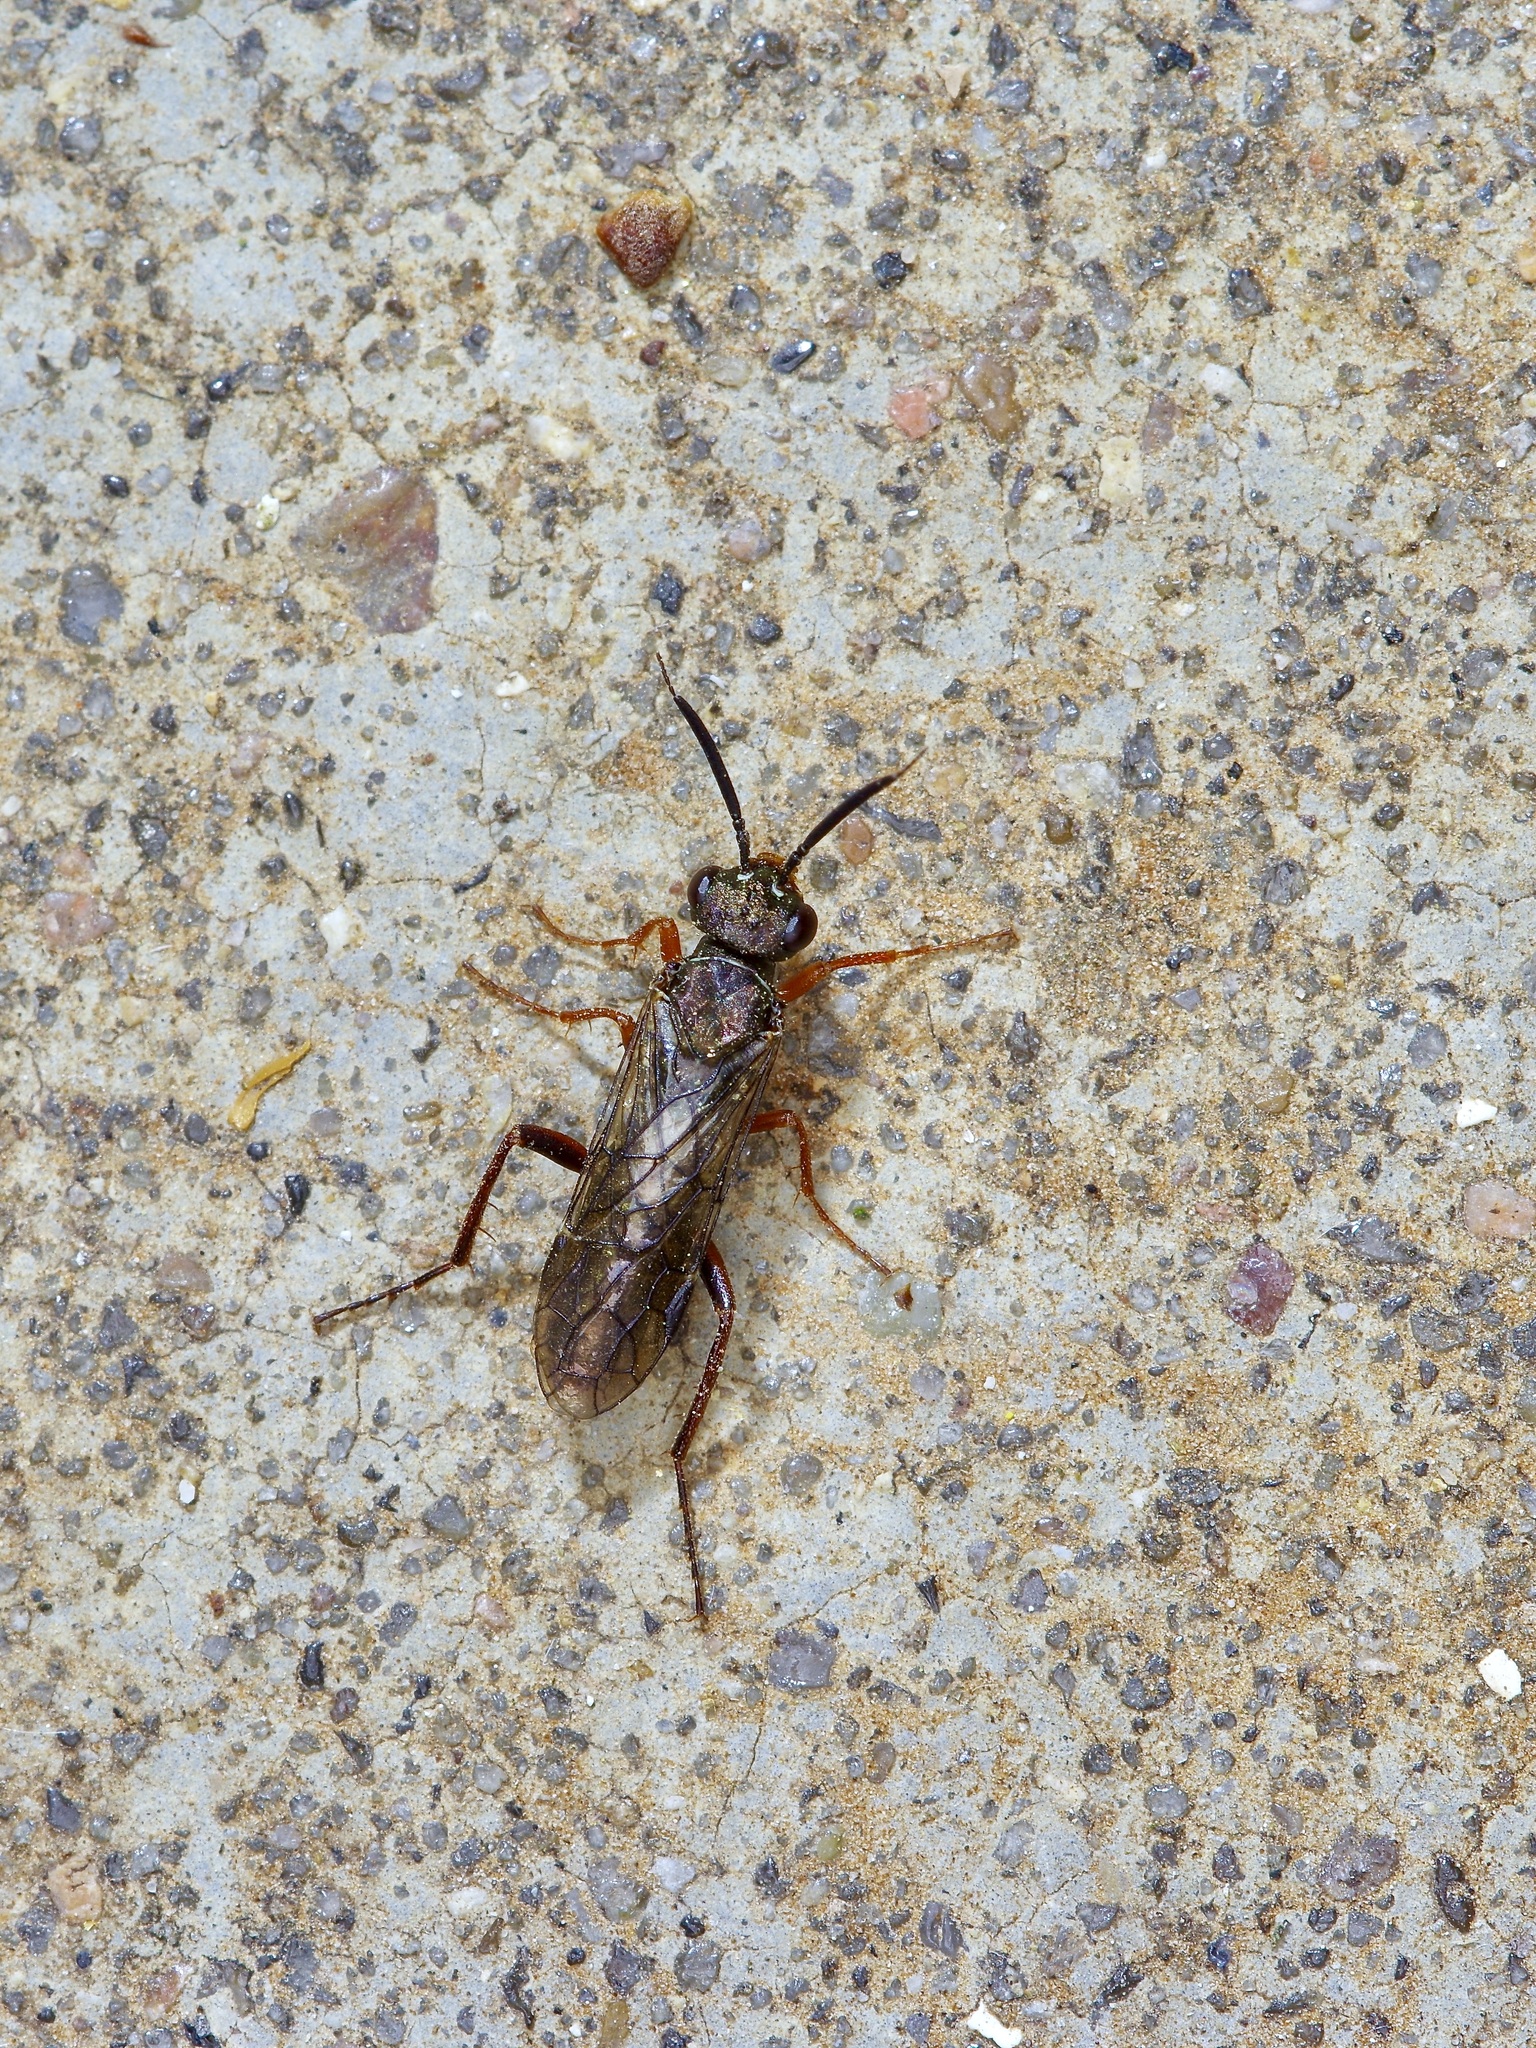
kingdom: Animalia
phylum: Arthropoda
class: Insecta
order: Hymenoptera
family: Xyelidae
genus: Macroxyela
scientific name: Macroxyela
